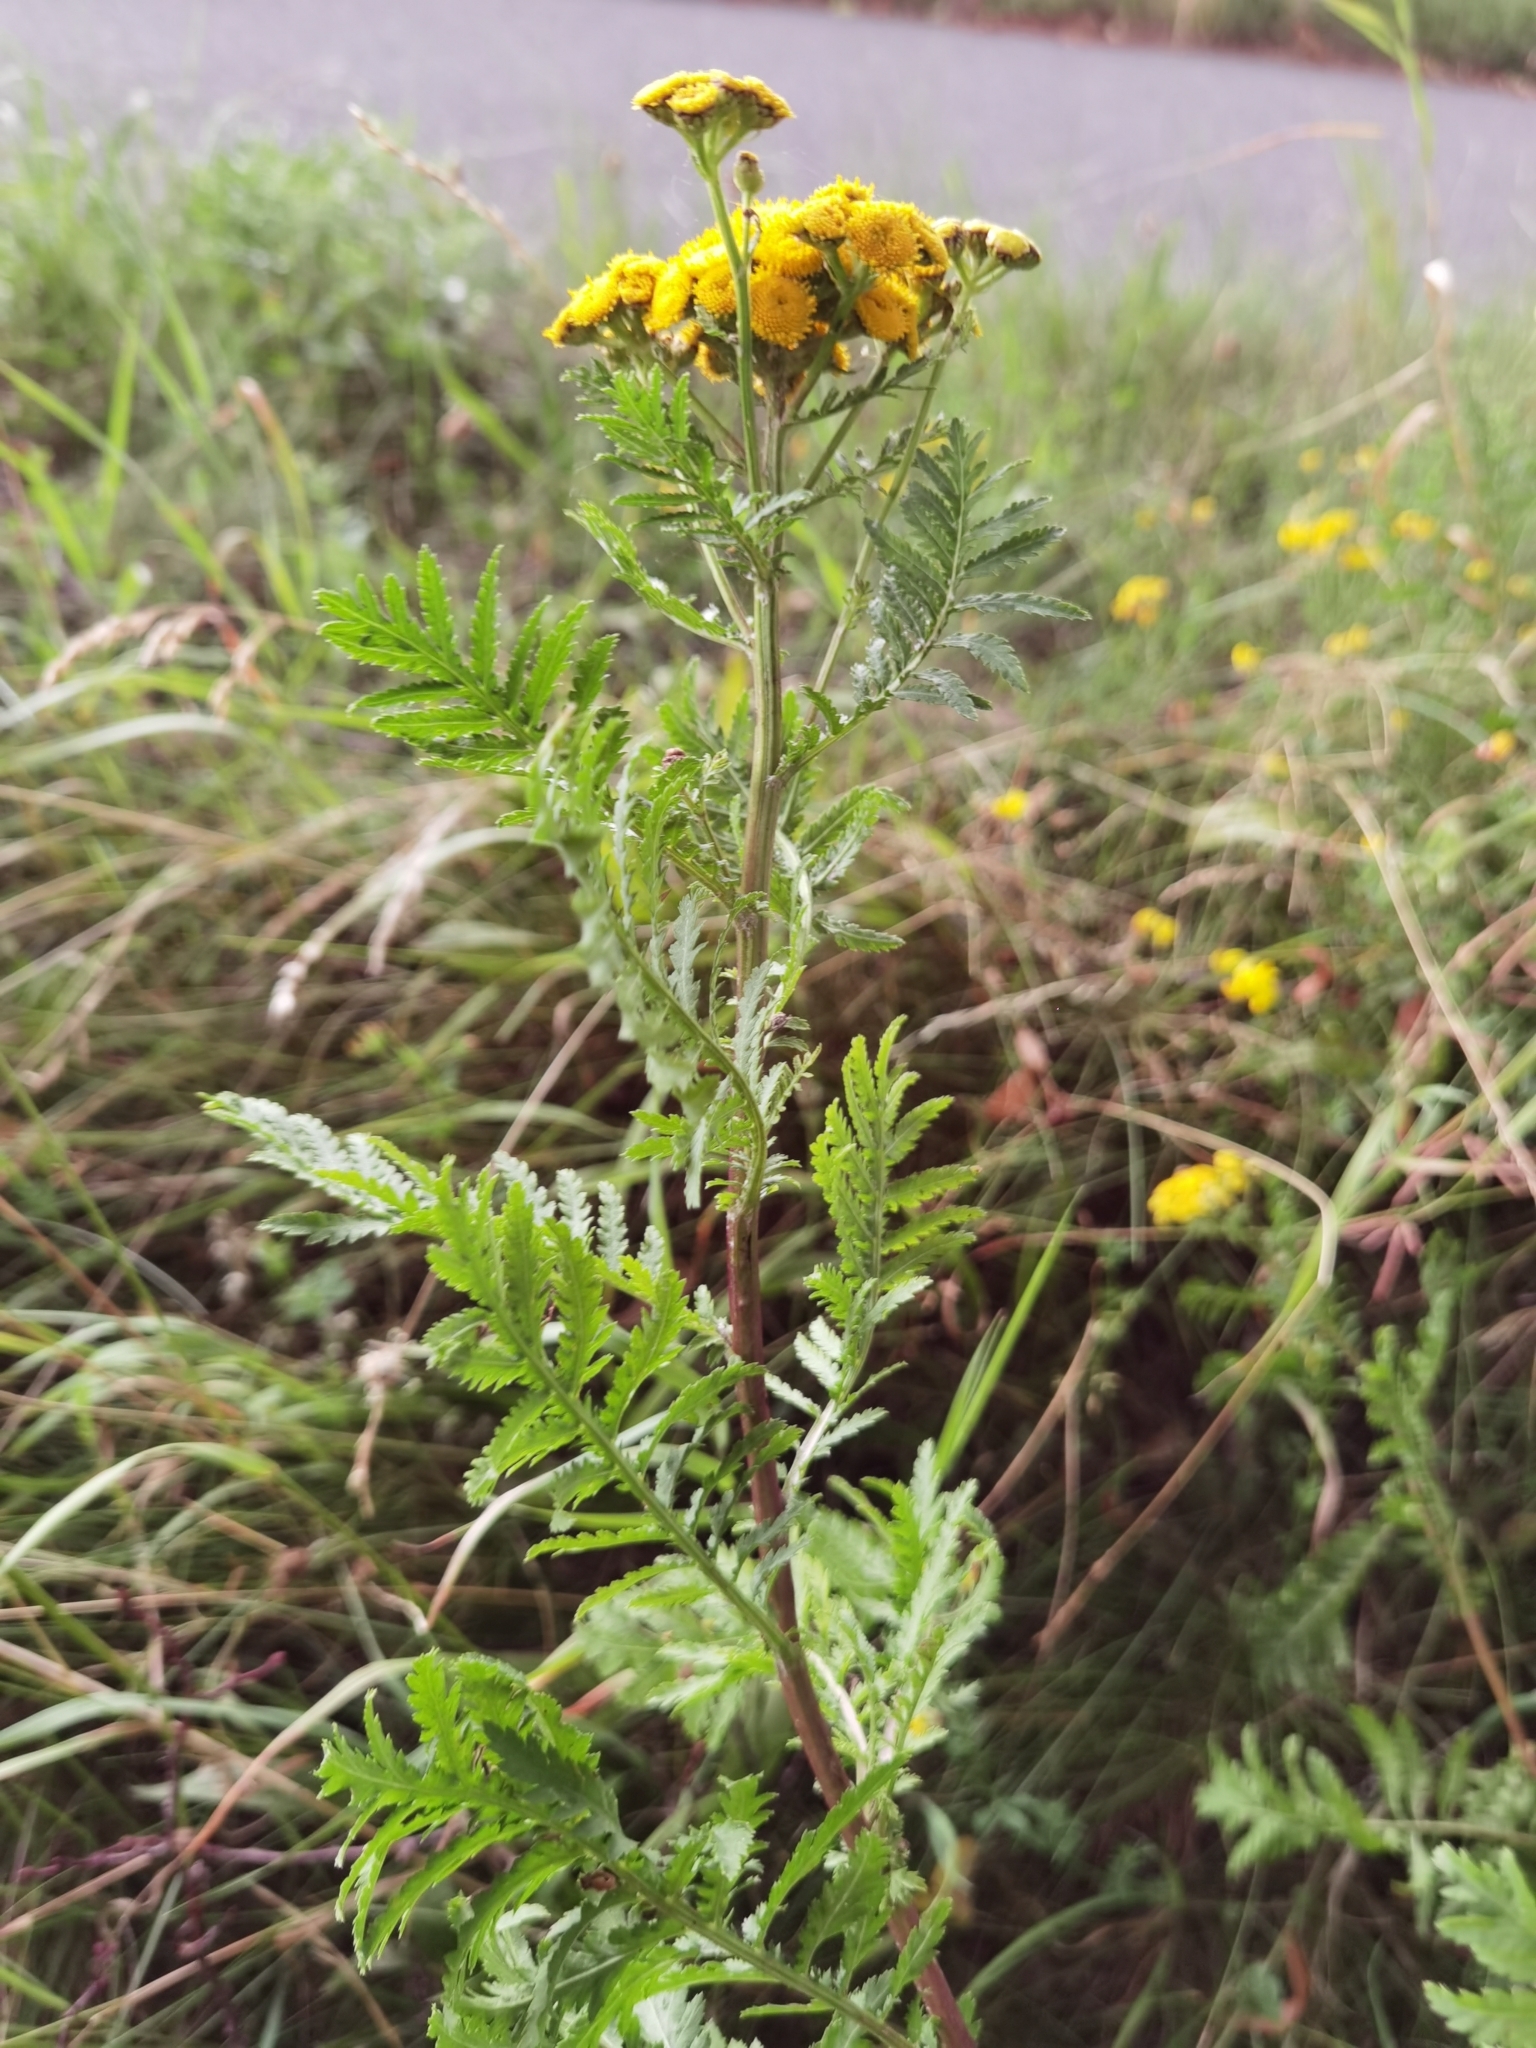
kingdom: Plantae
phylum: Tracheophyta
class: Magnoliopsida
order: Asterales
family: Asteraceae
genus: Tanacetum
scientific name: Tanacetum vulgare
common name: Common tansy
